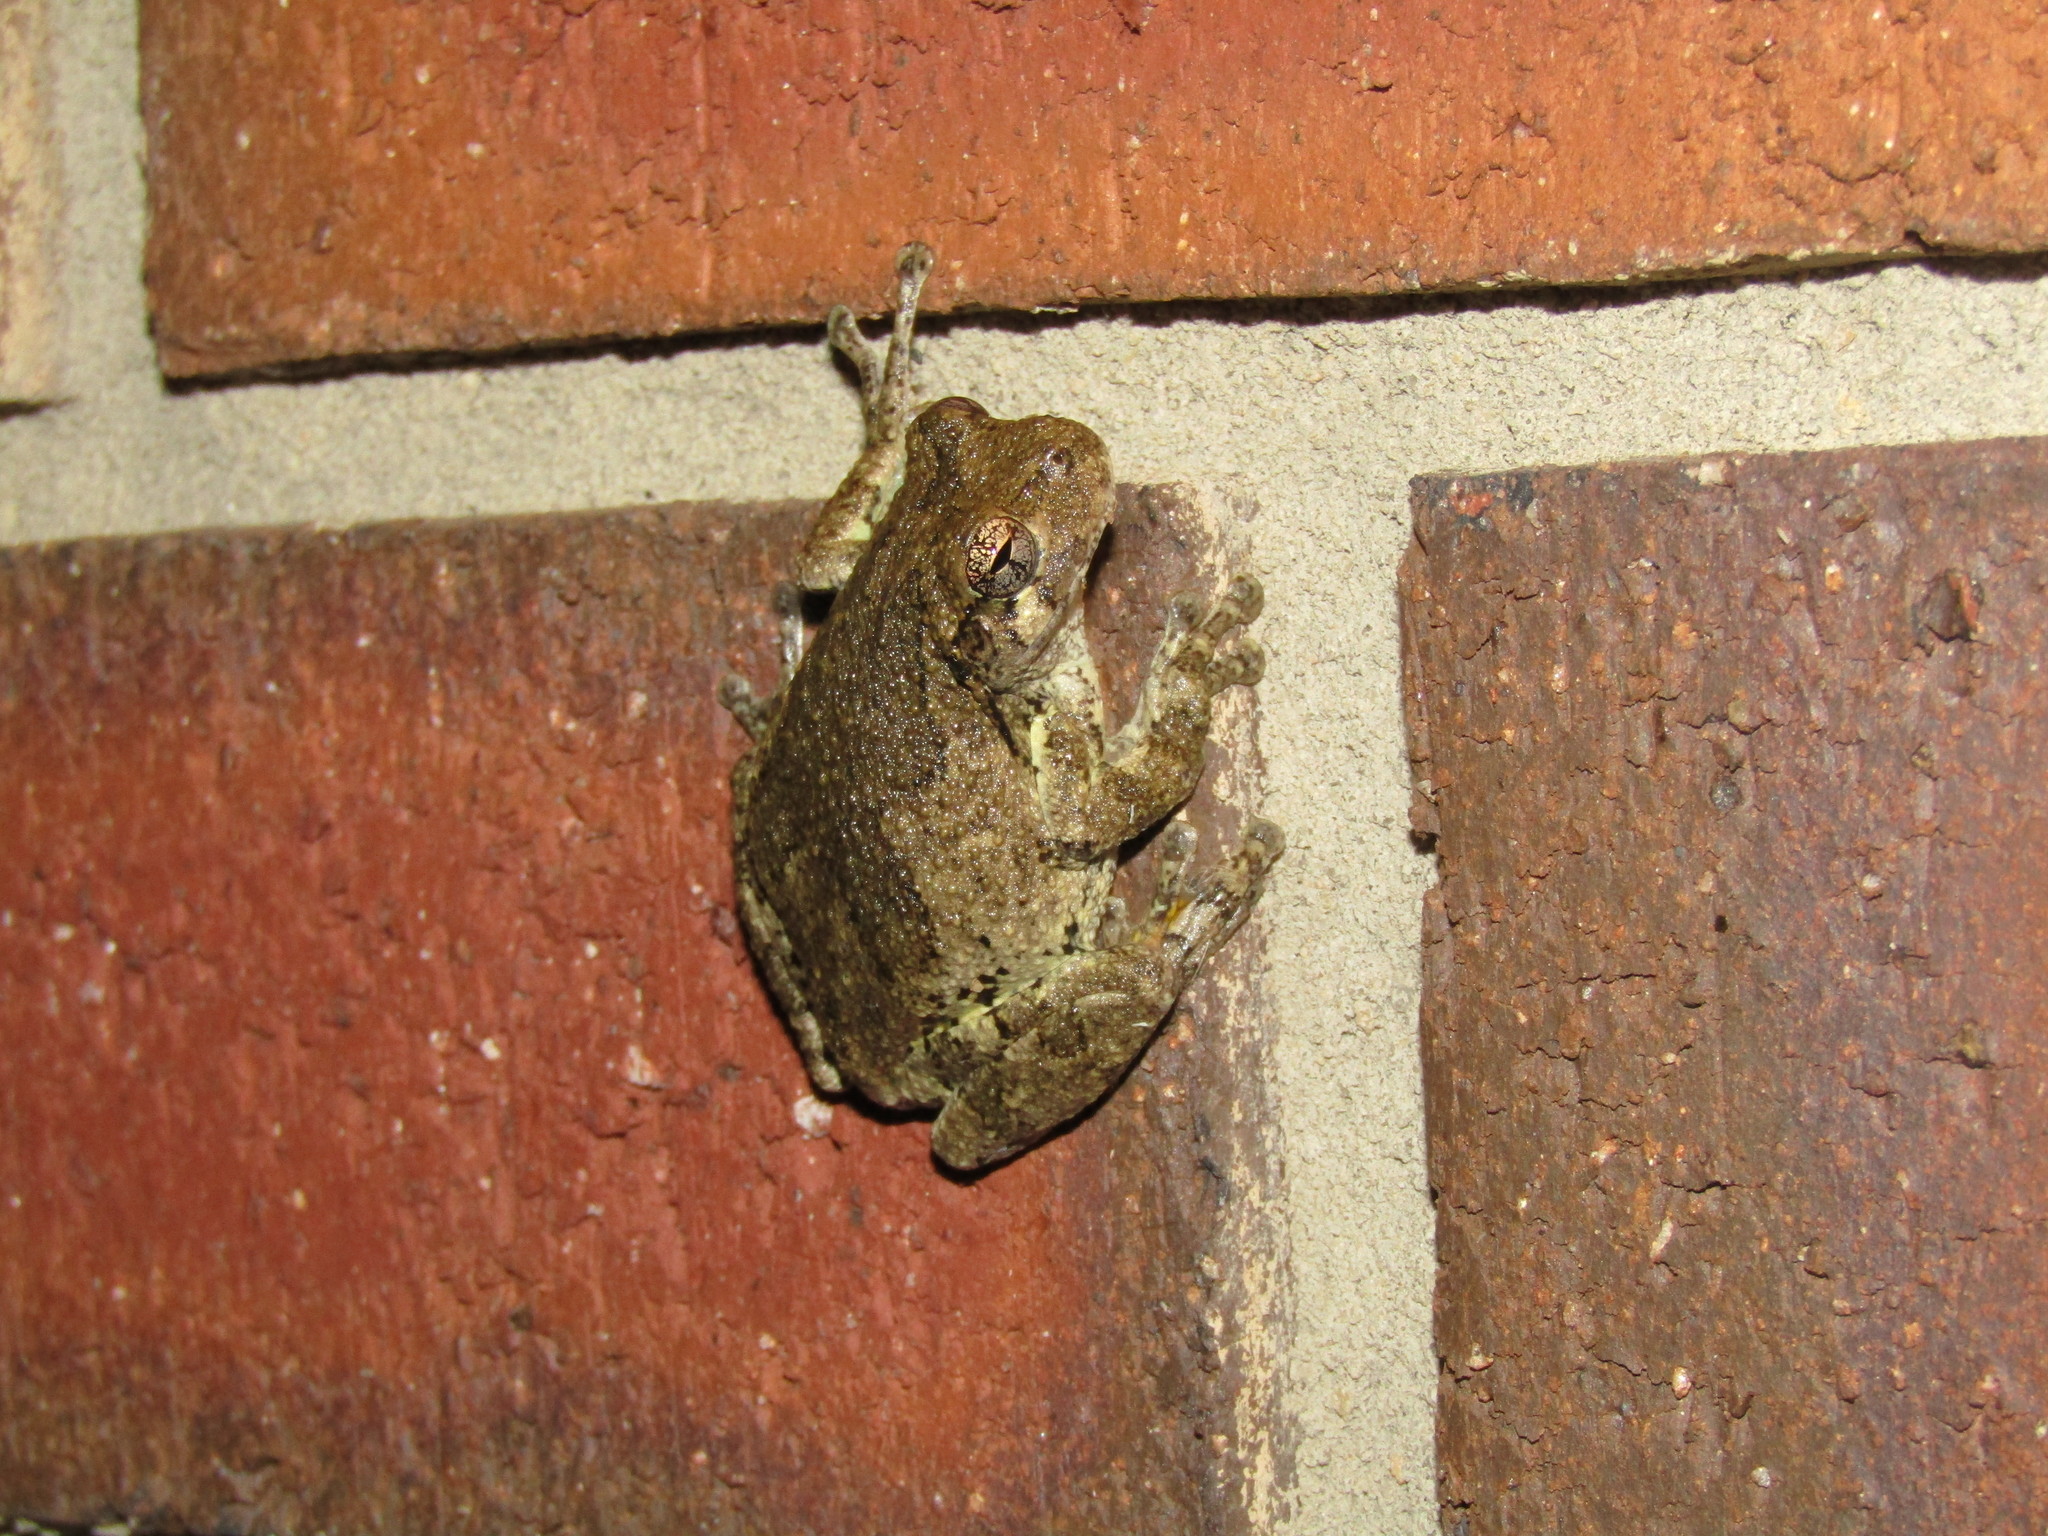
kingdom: Animalia
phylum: Chordata
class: Amphibia
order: Anura
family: Hylidae
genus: Dryophytes
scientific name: Dryophytes chrysoscelis
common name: Cope's gray treefrog
